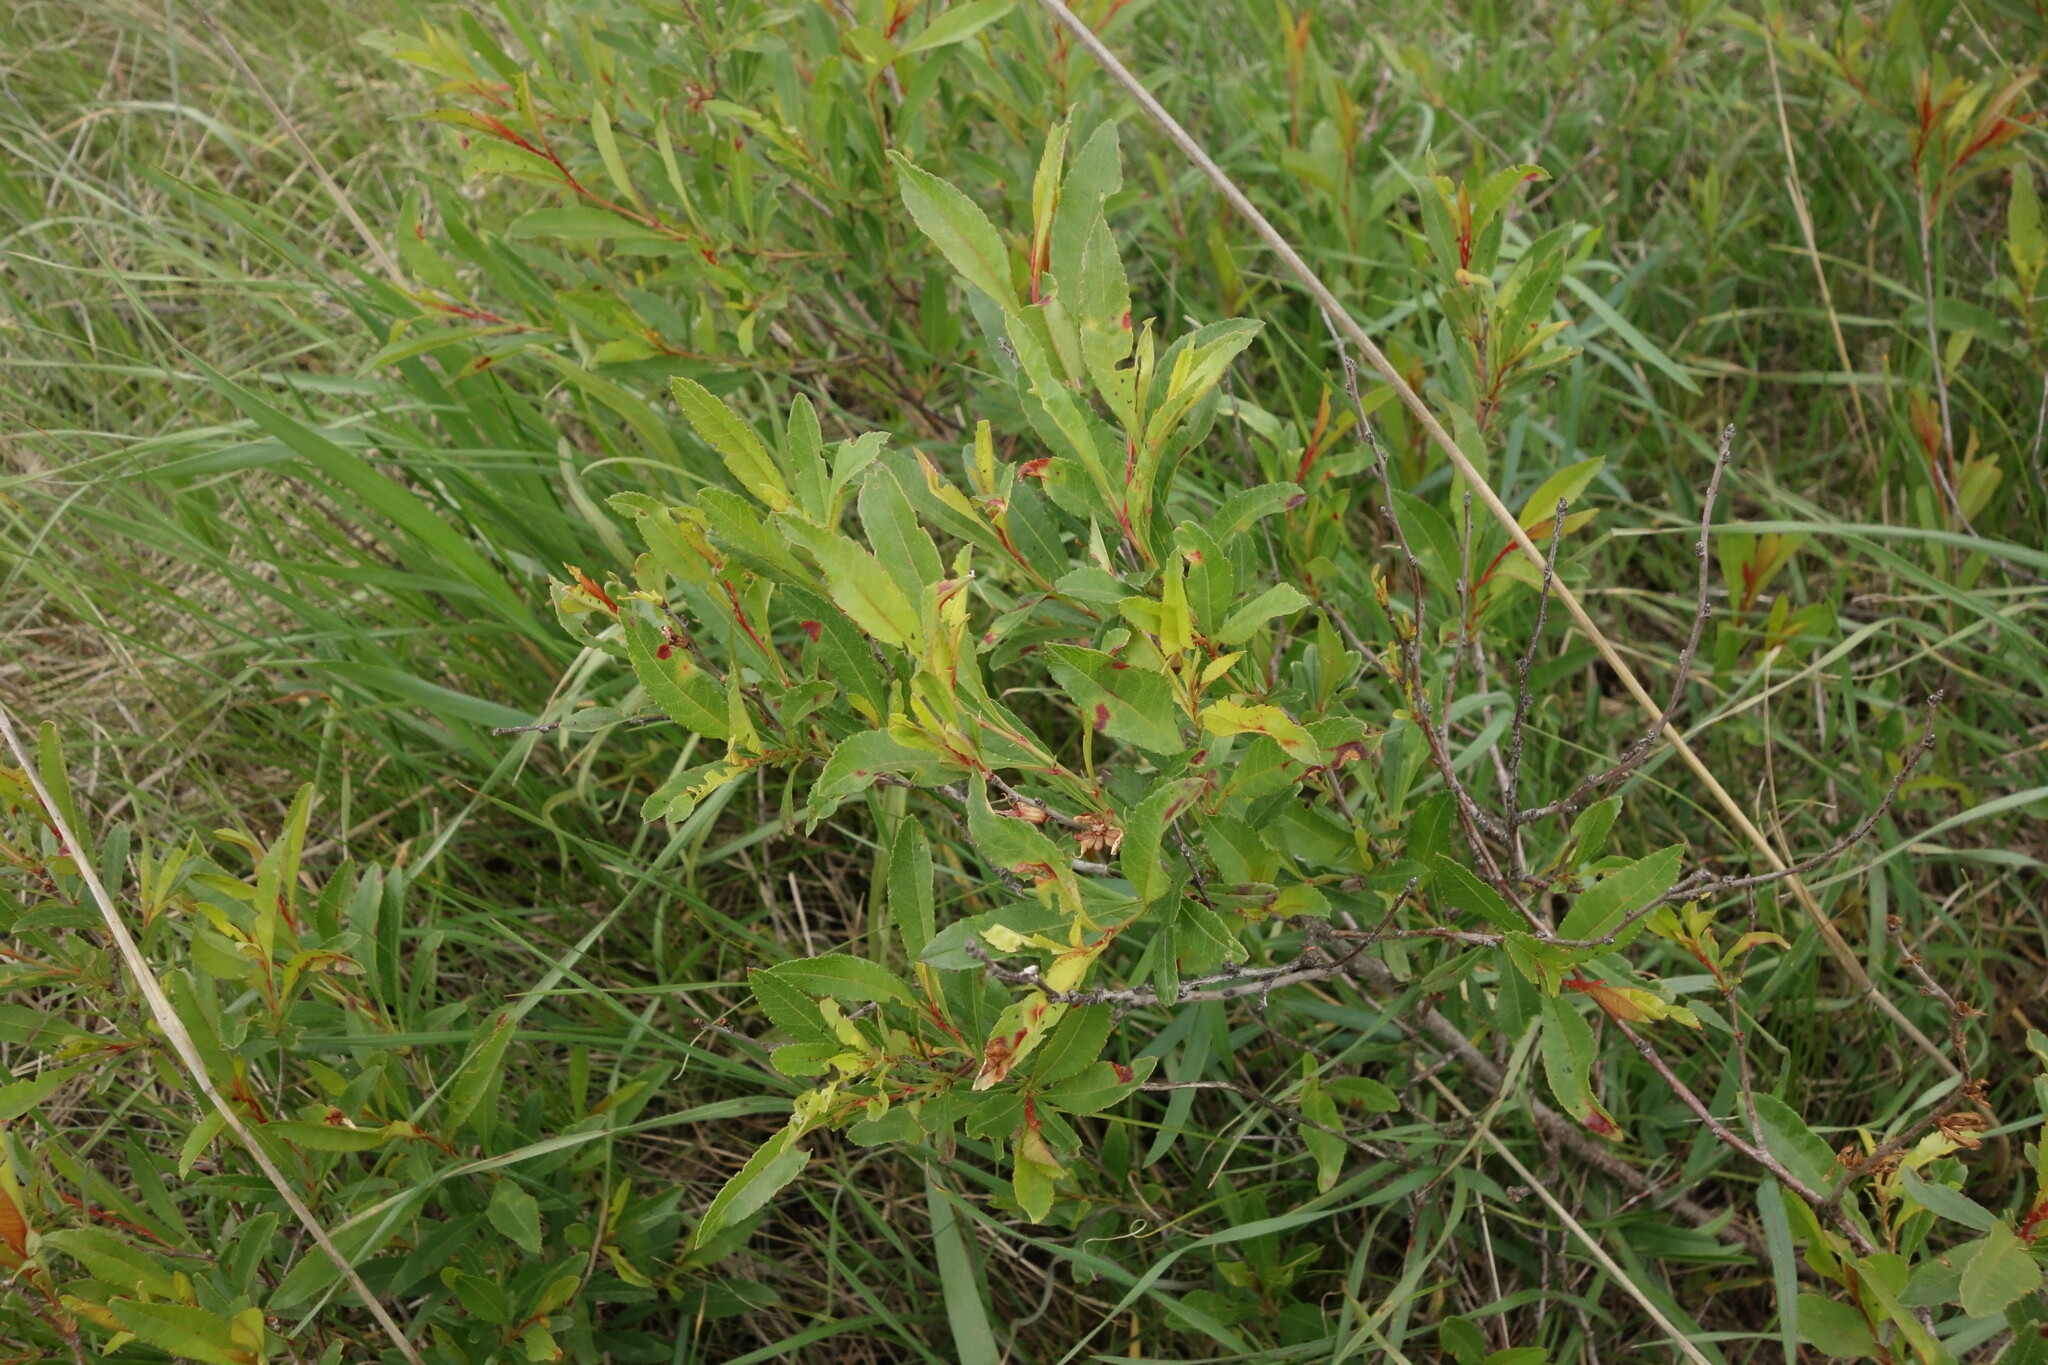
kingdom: Plantae
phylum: Tracheophyta
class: Magnoliopsida
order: Rosales
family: Rosaceae
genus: Prunus
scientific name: Prunus tenella
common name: Dwarf russian almond
